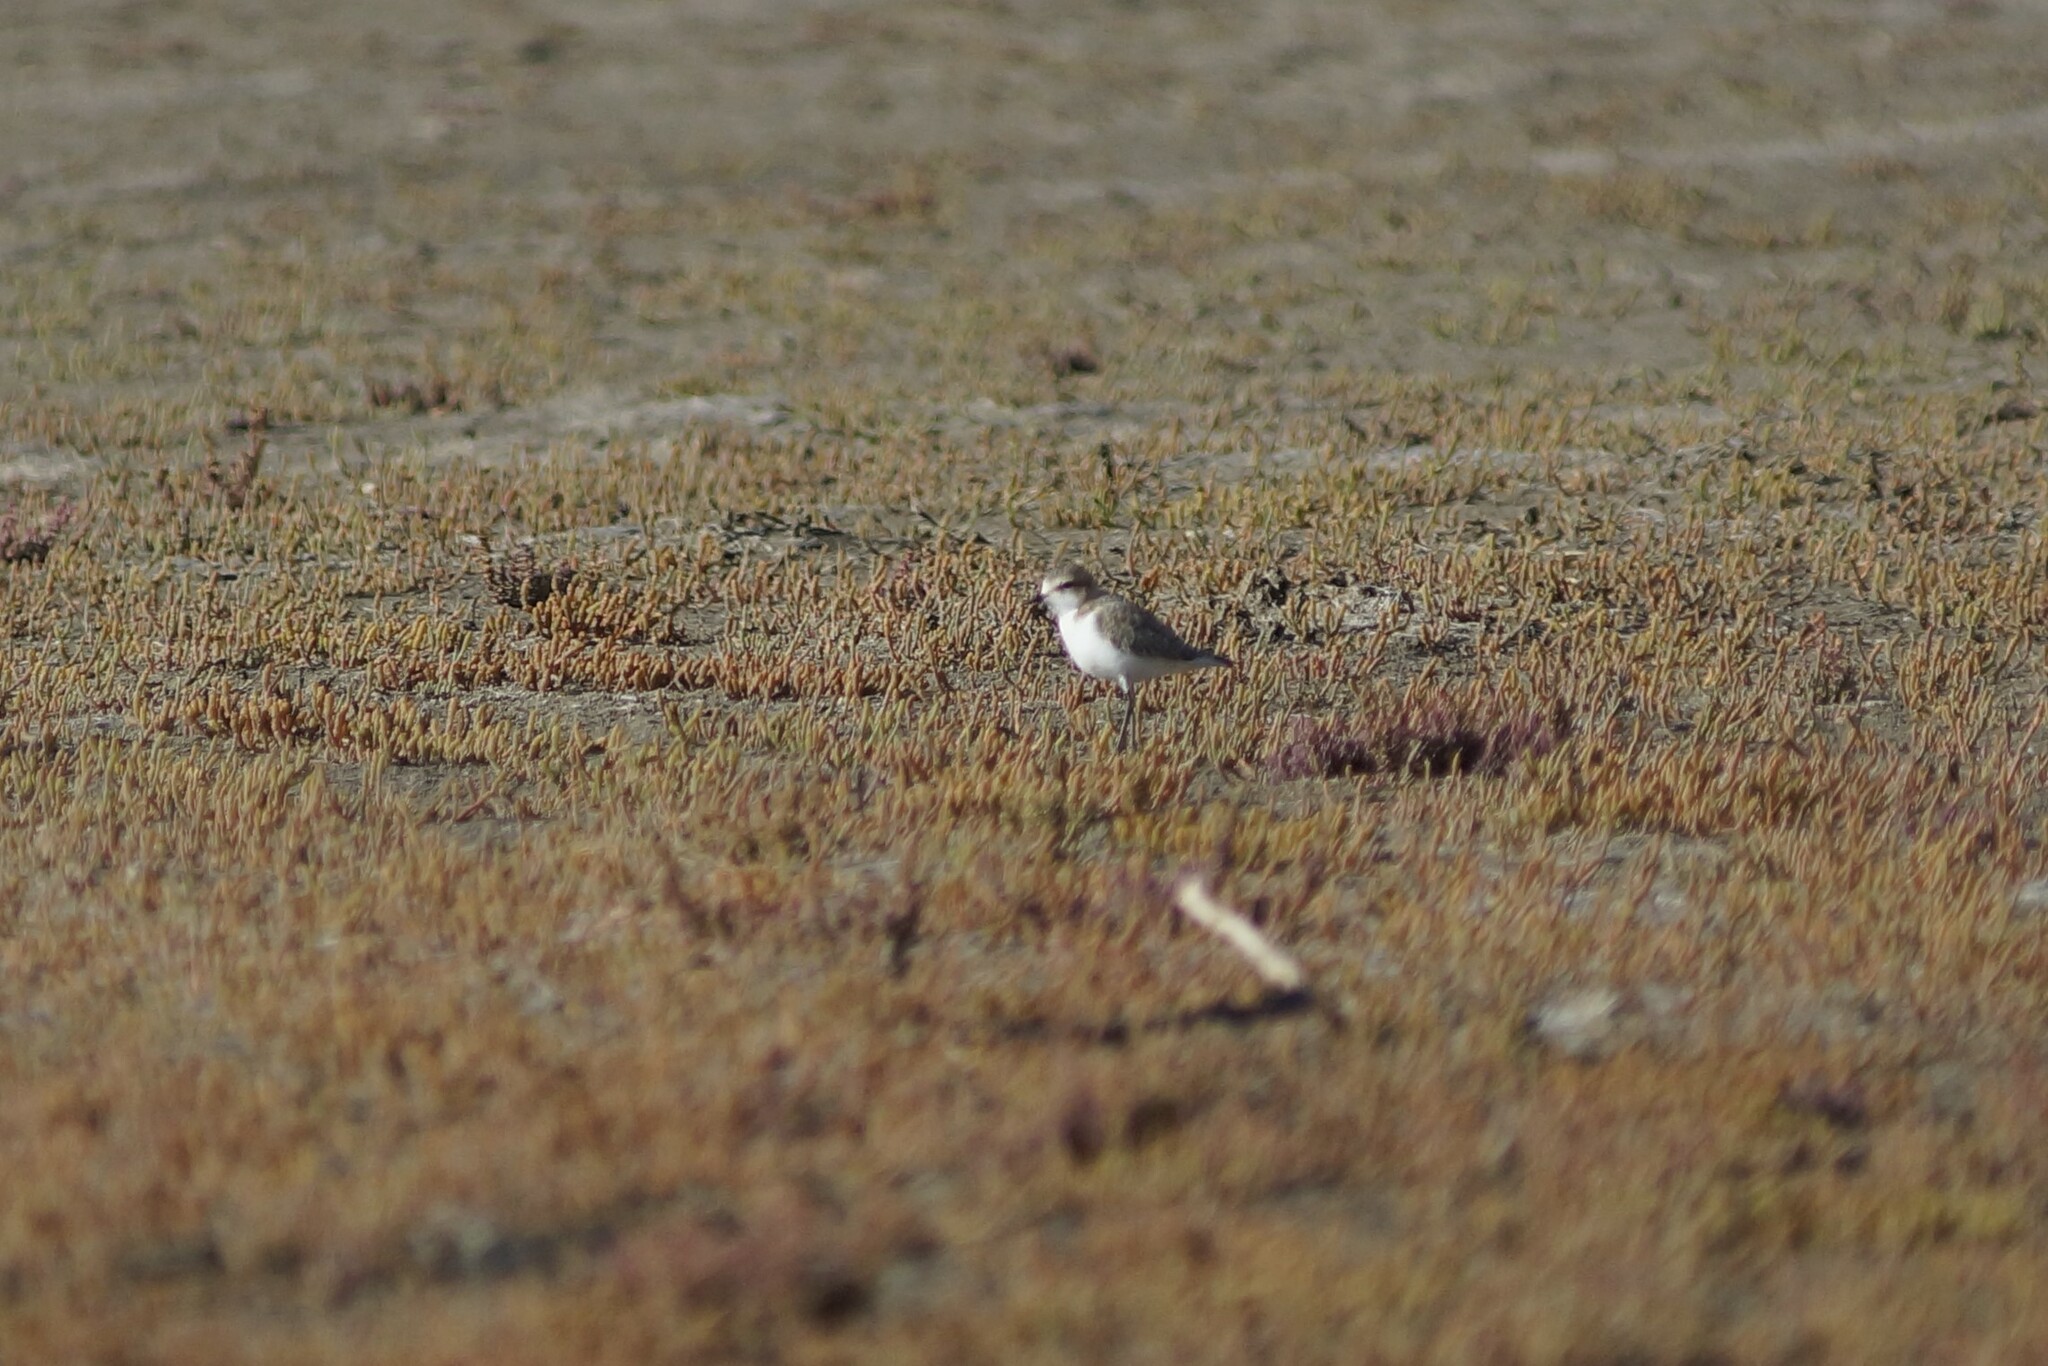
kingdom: Animalia
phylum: Chordata
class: Aves
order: Charadriiformes
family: Charadriidae
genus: Anarhynchus
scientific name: Anarhynchus
